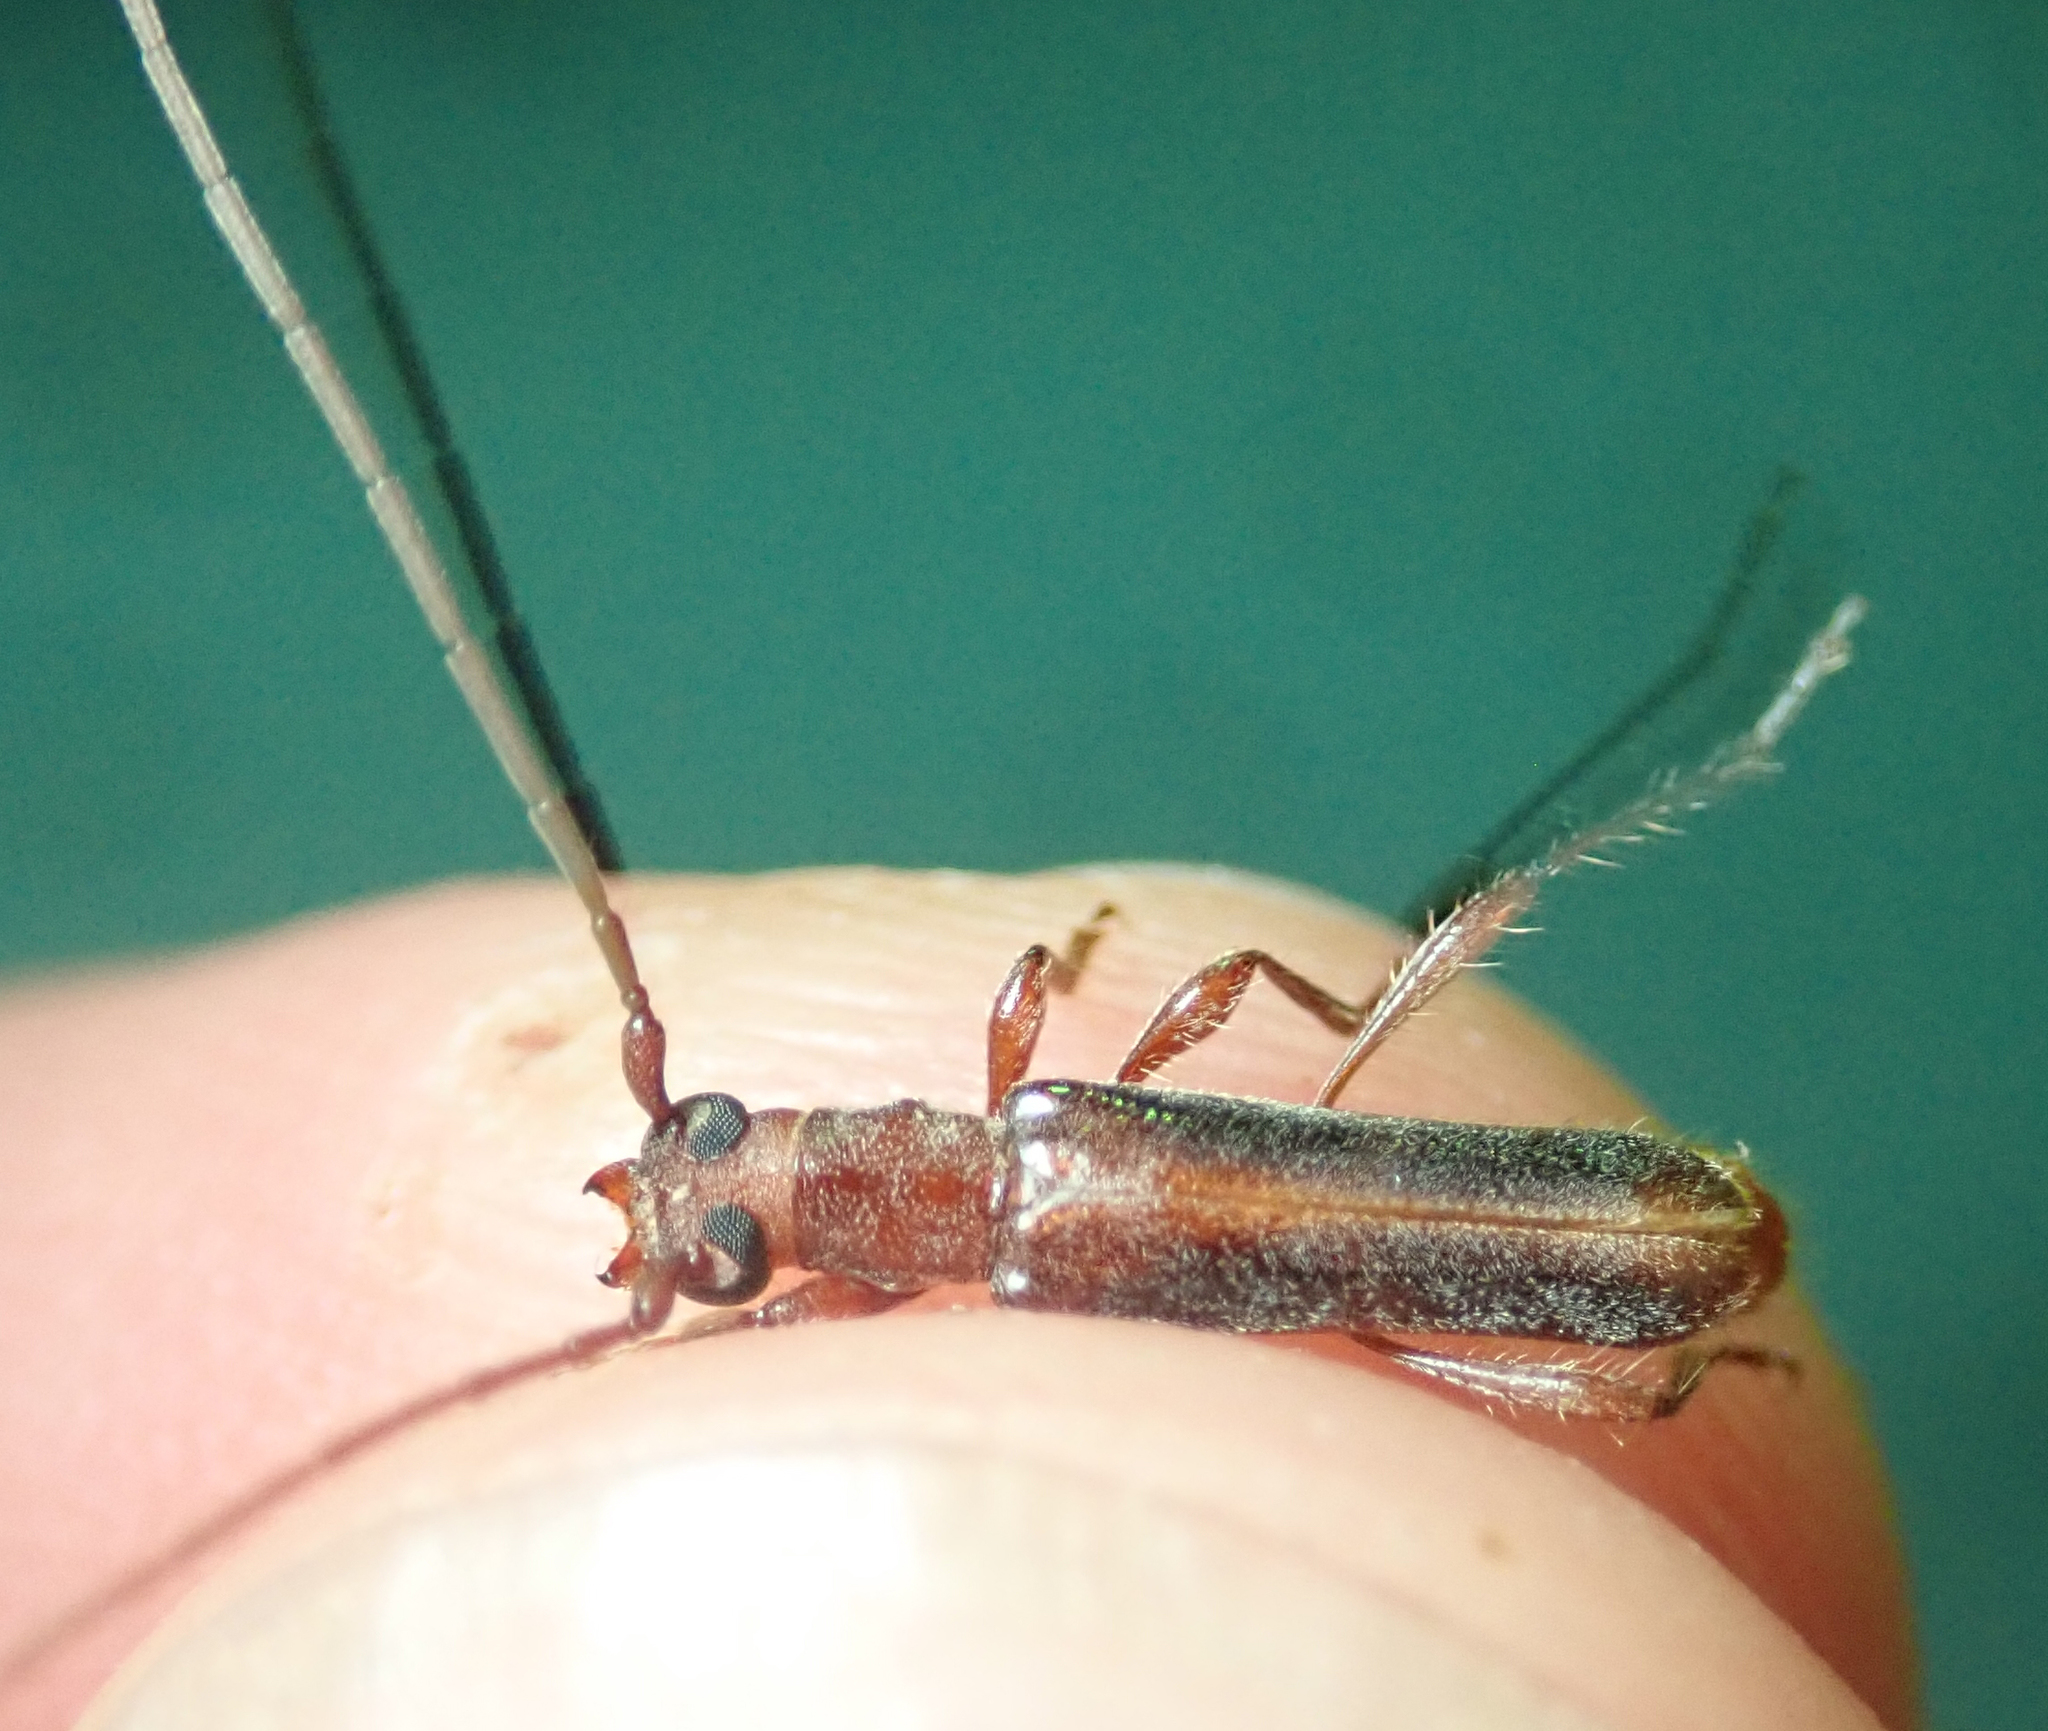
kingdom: Animalia
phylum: Arthropoda
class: Insecta
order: Coleoptera
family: Cerambycidae
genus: Ossibia
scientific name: Ossibia fuscata
